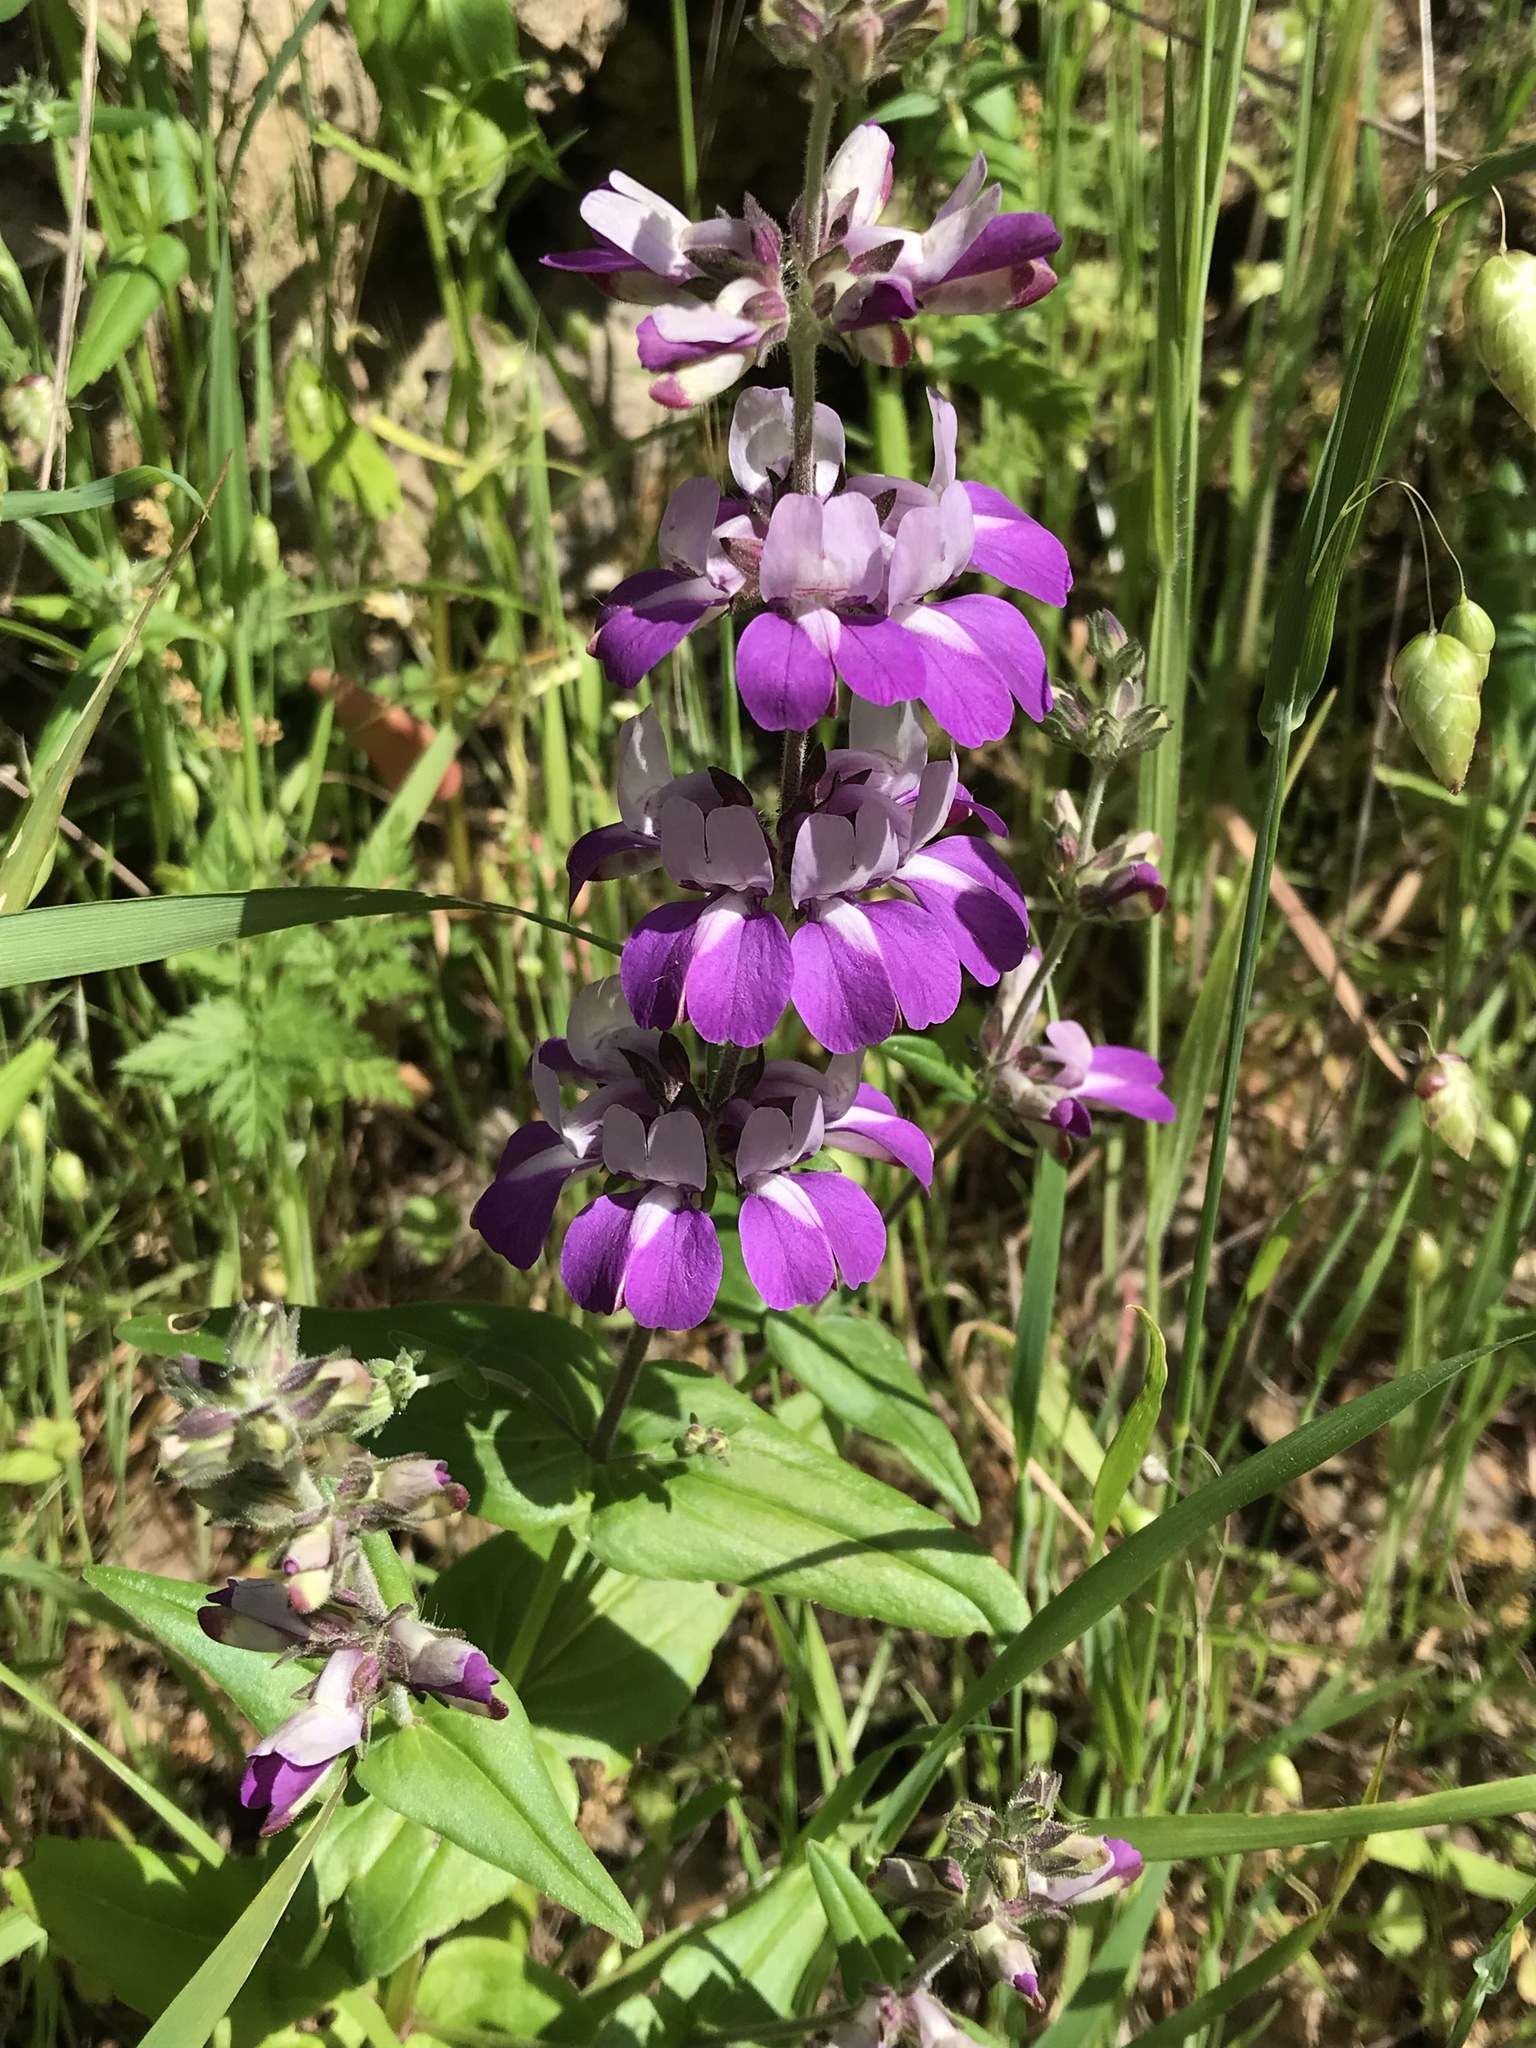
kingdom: Plantae
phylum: Tracheophyta
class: Magnoliopsida
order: Lamiales
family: Plantaginaceae
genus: Collinsia
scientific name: Collinsia heterophylla
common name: Chinese-houses
